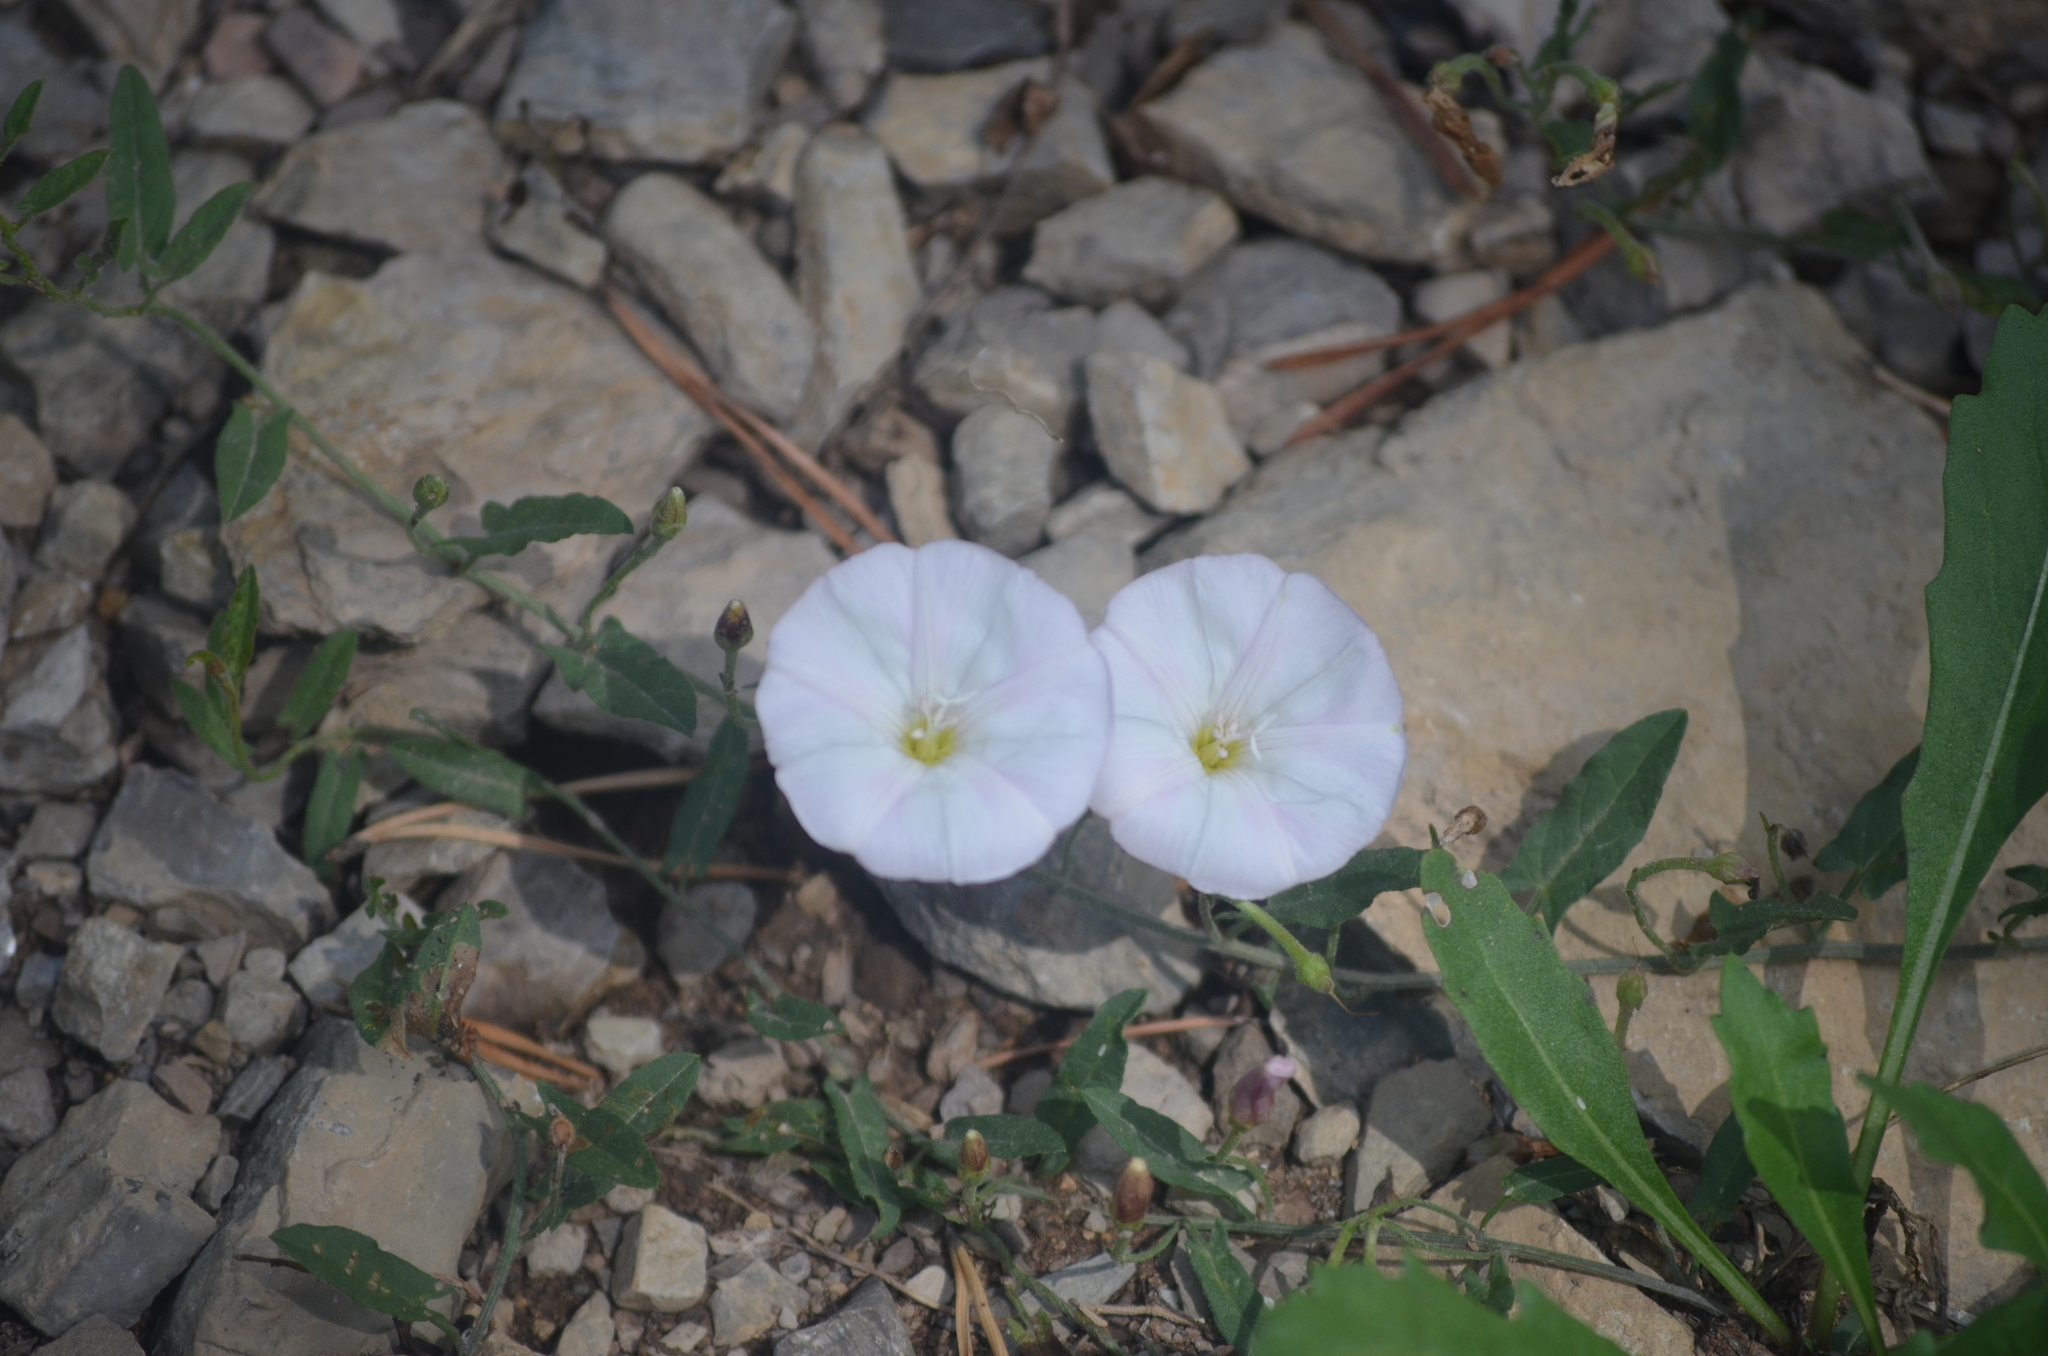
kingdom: Plantae
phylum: Tracheophyta
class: Magnoliopsida
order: Solanales
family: Convolvulaceae
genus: Convolvulus
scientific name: Convolvulus arvensis
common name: Field bindweed
